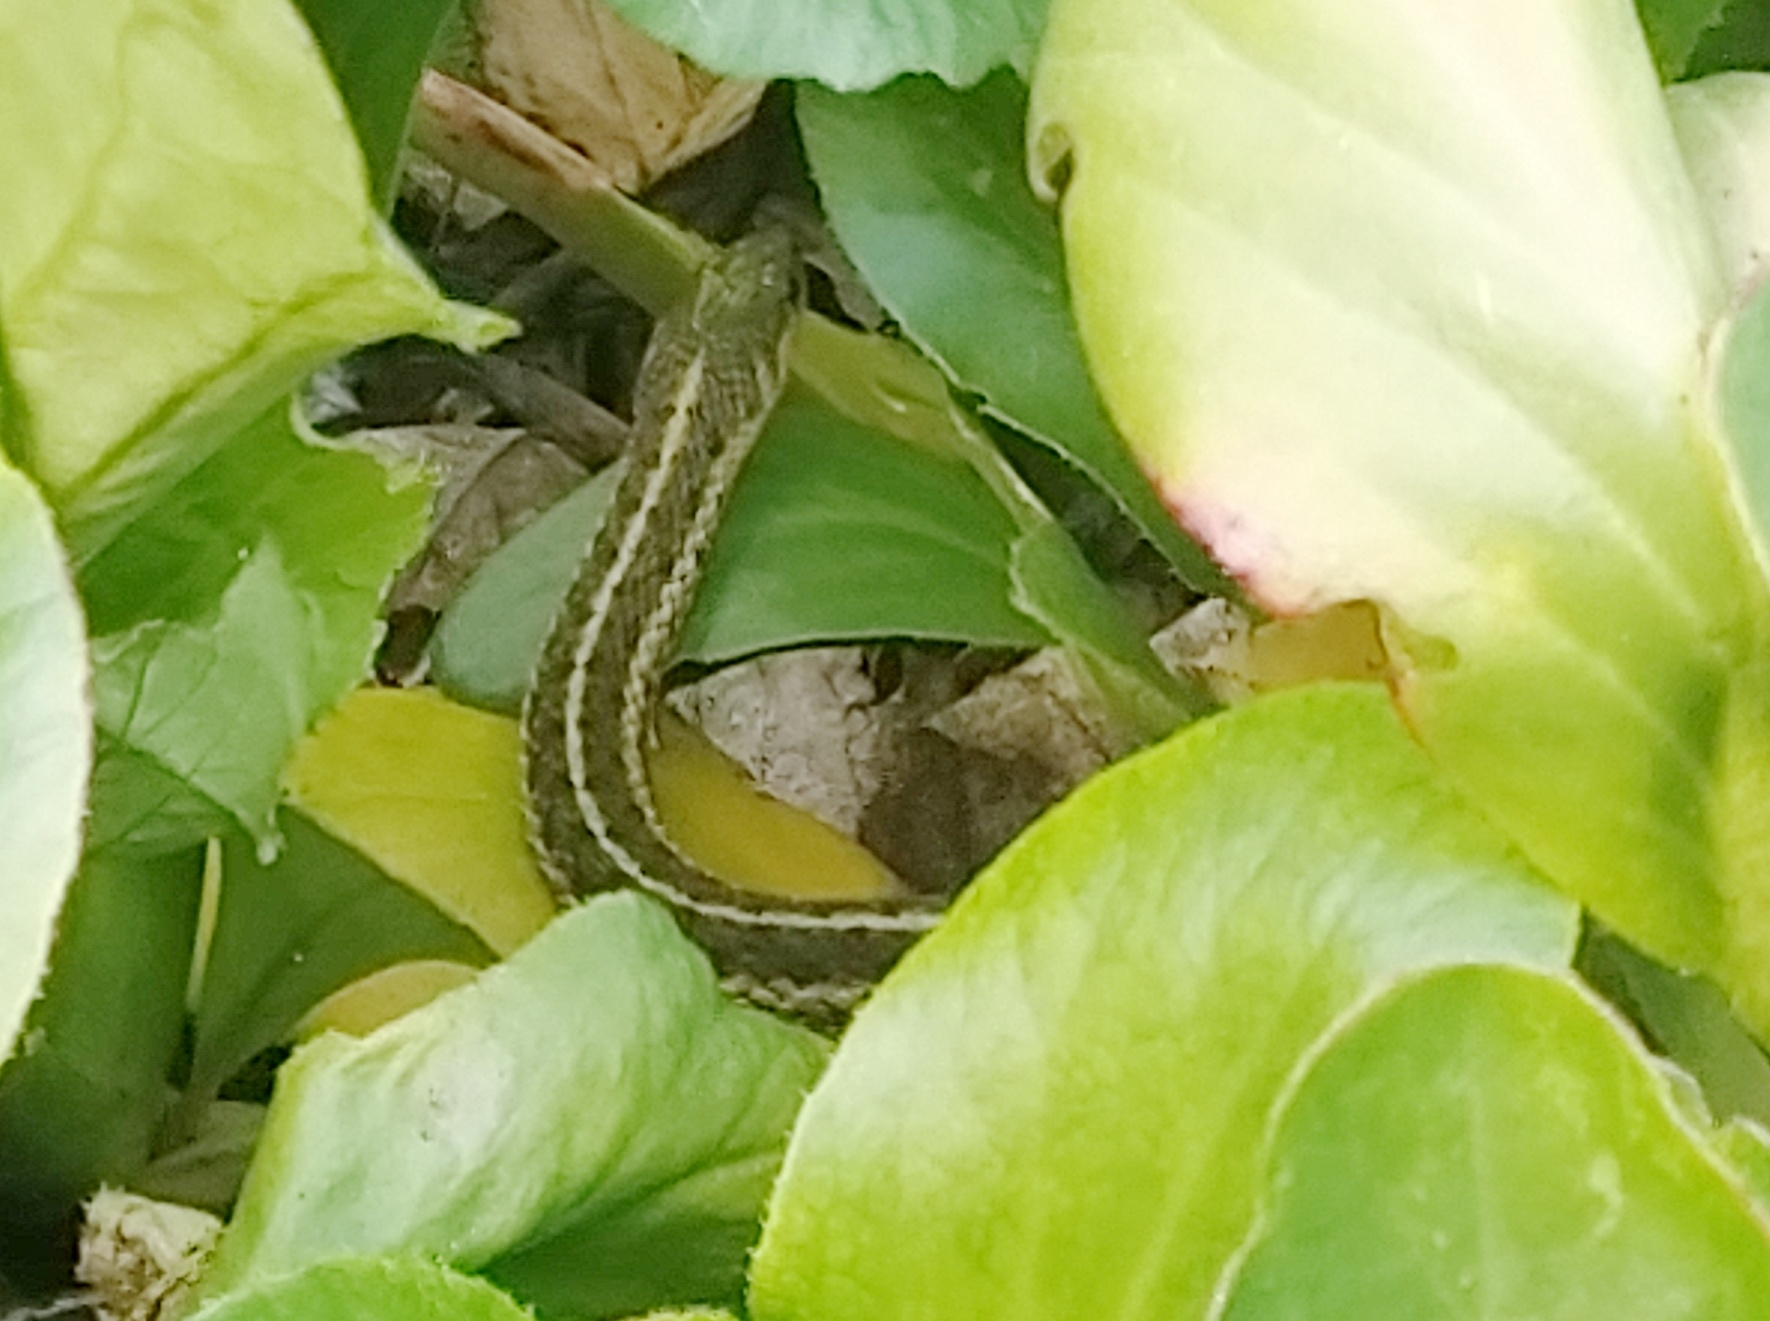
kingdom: Animalia
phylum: Chordata
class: Squamata
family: Colubridae
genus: Thamnophis
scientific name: Thamnophis sirtalis
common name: Common garter snake
